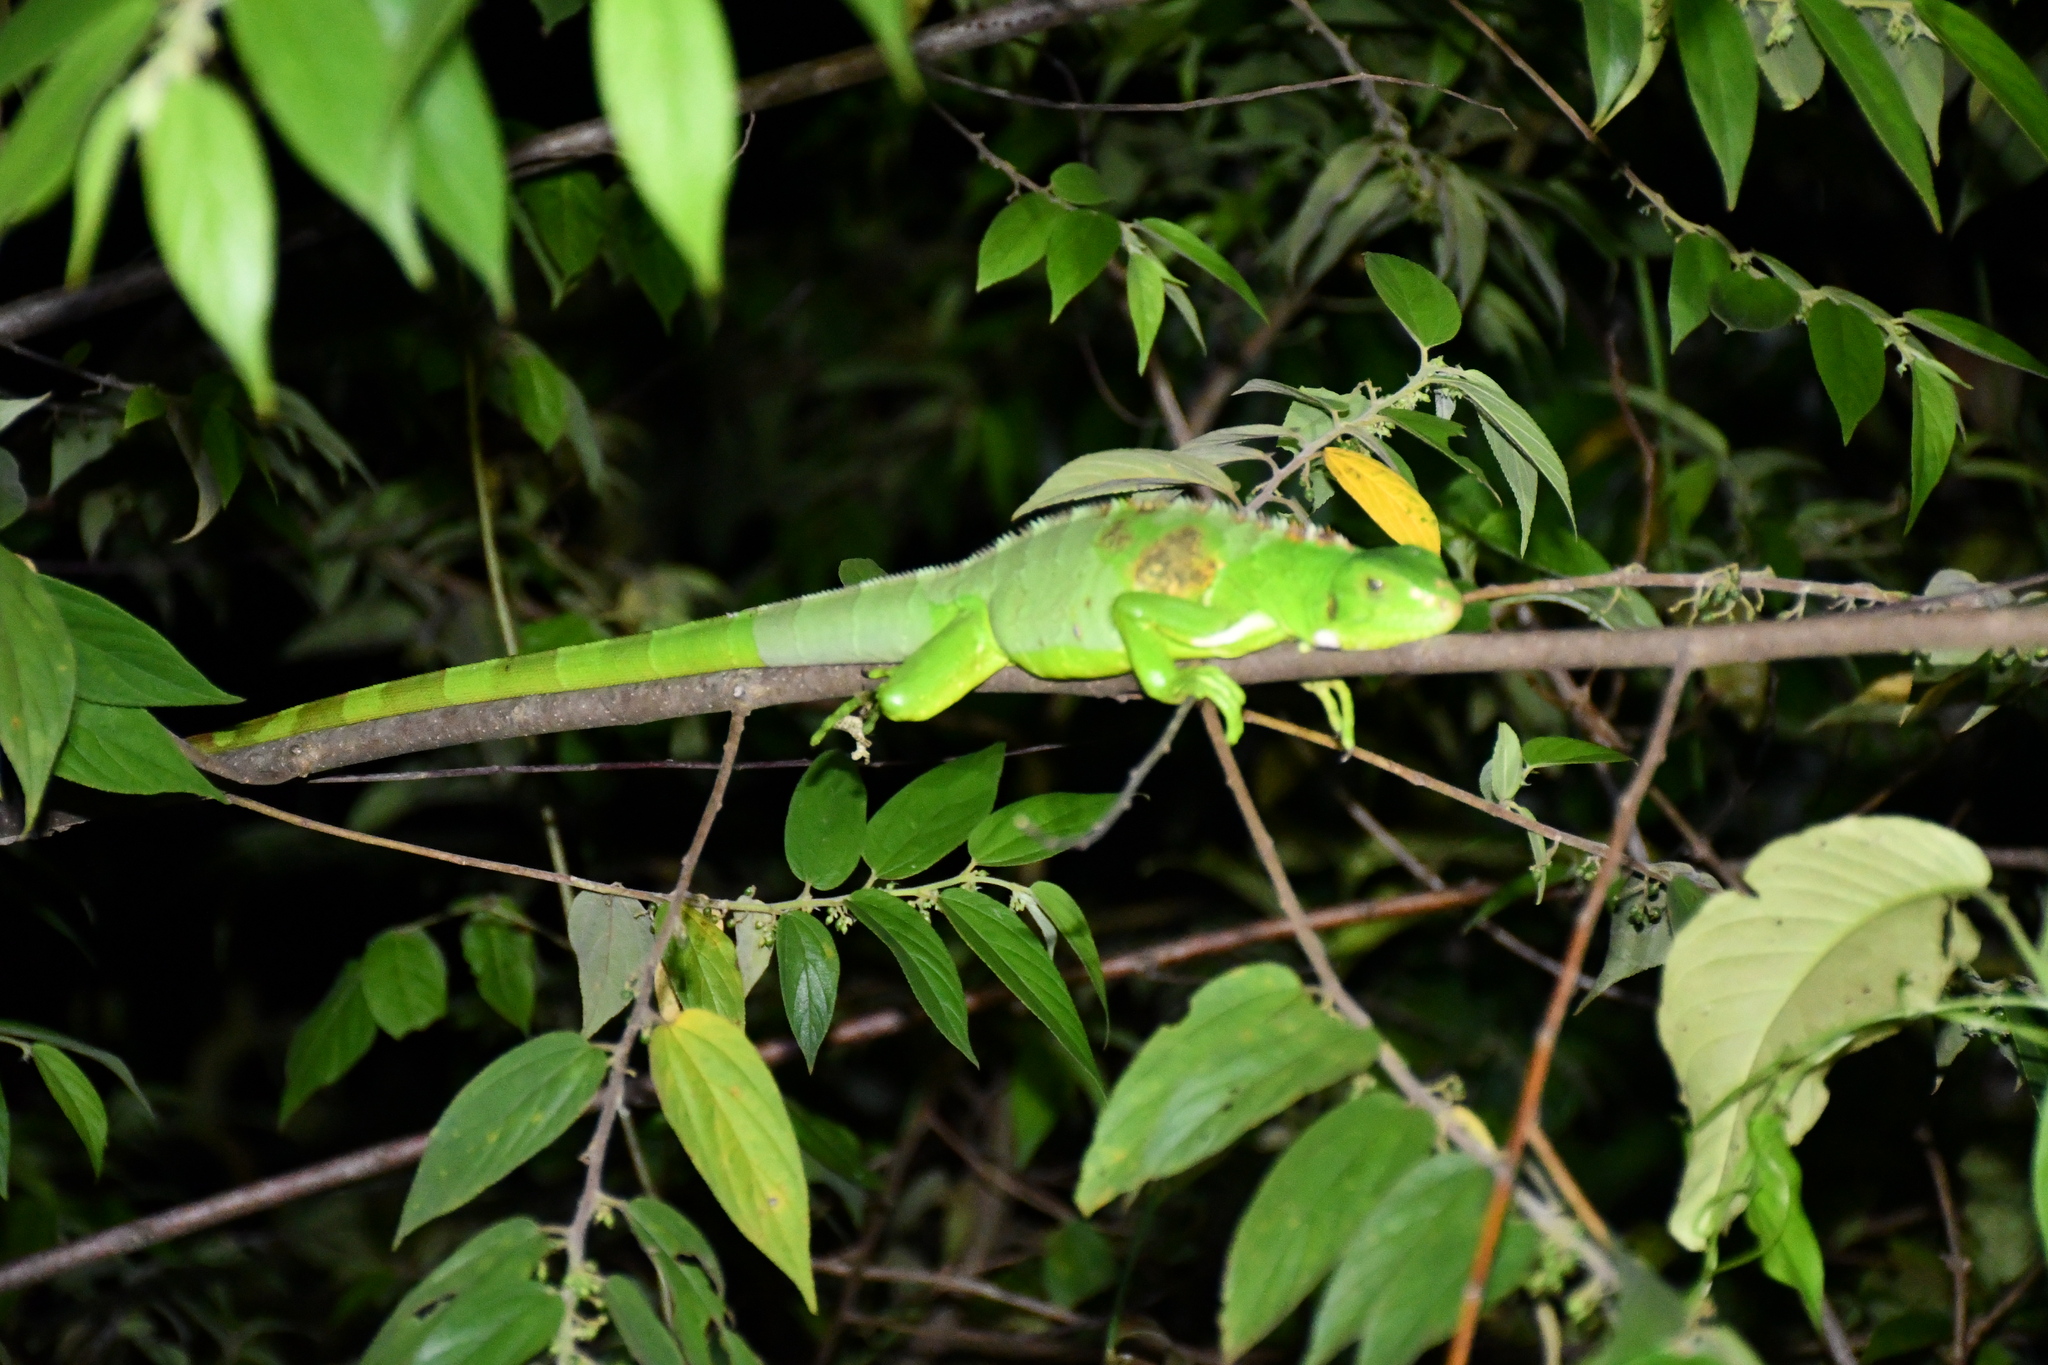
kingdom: Animalia
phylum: Chordata
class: Squamata
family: Iguanidae
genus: Iguana
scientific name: Iguana iguana
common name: Green iguana
